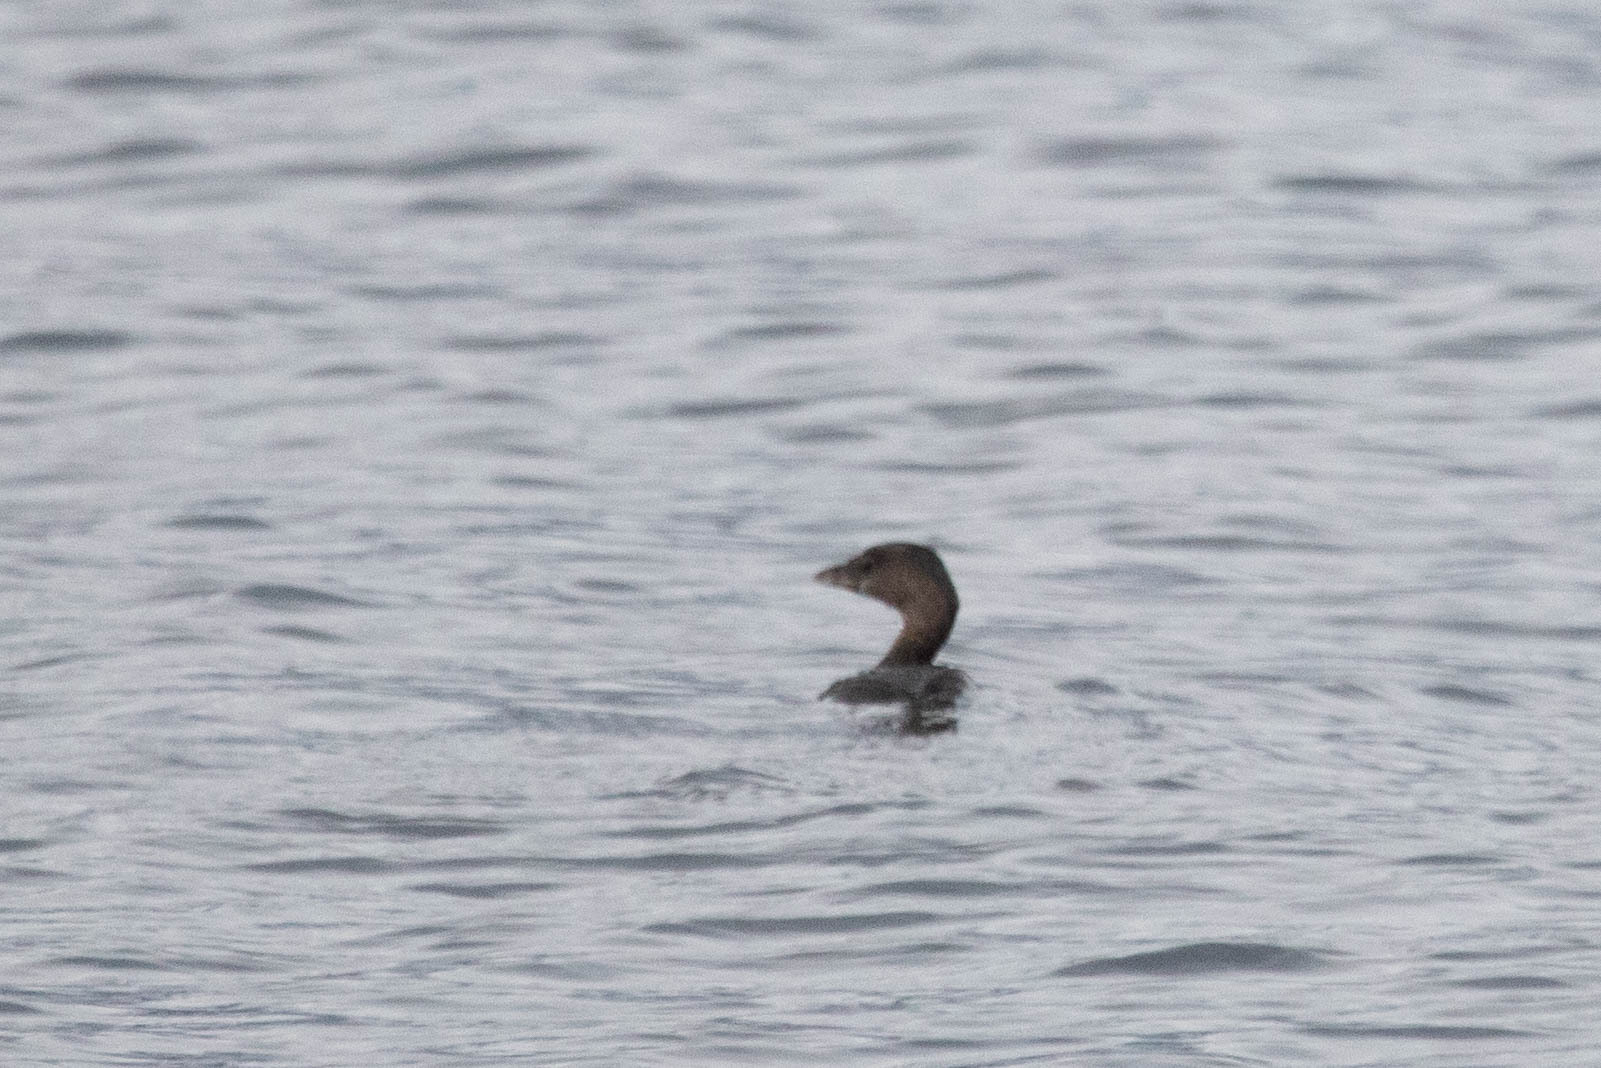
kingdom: Animalia
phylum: Chordata
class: Aves
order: Podicipediformes
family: Podicipedidae
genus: Podilymbus
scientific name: Podilymbus podiceps
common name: Pied-billed grebe
